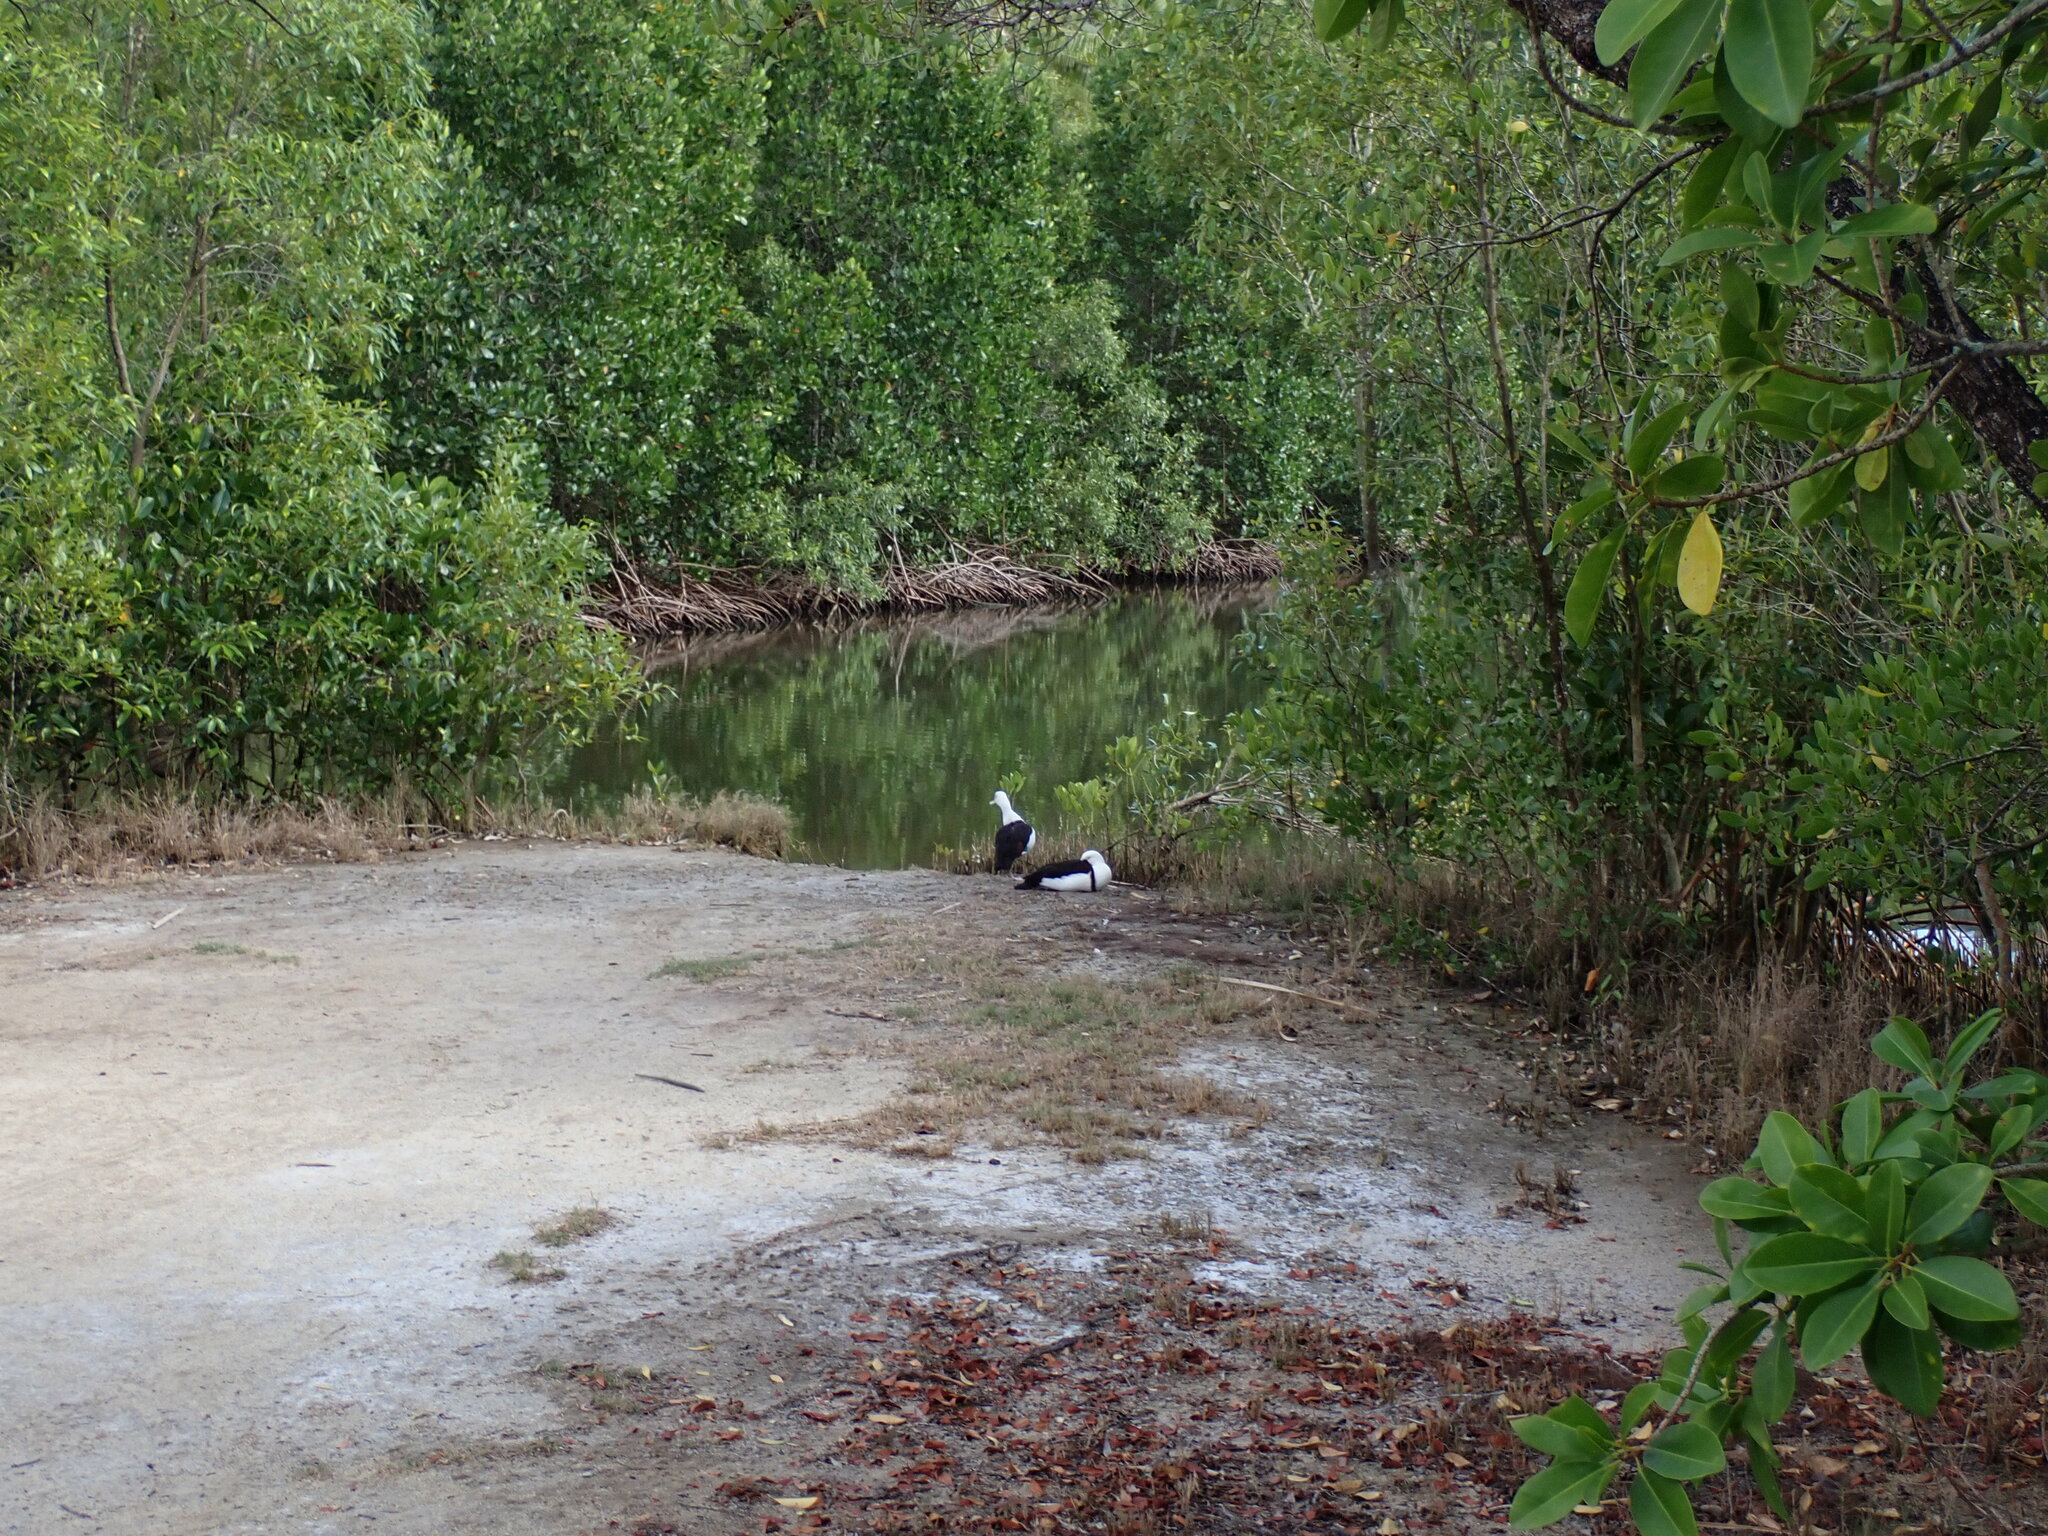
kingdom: Animalia
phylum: Chordata
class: Aves
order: Anseriformes
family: Anatidae
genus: Radjah
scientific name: Radjah radjah
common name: Radjah shelduck
